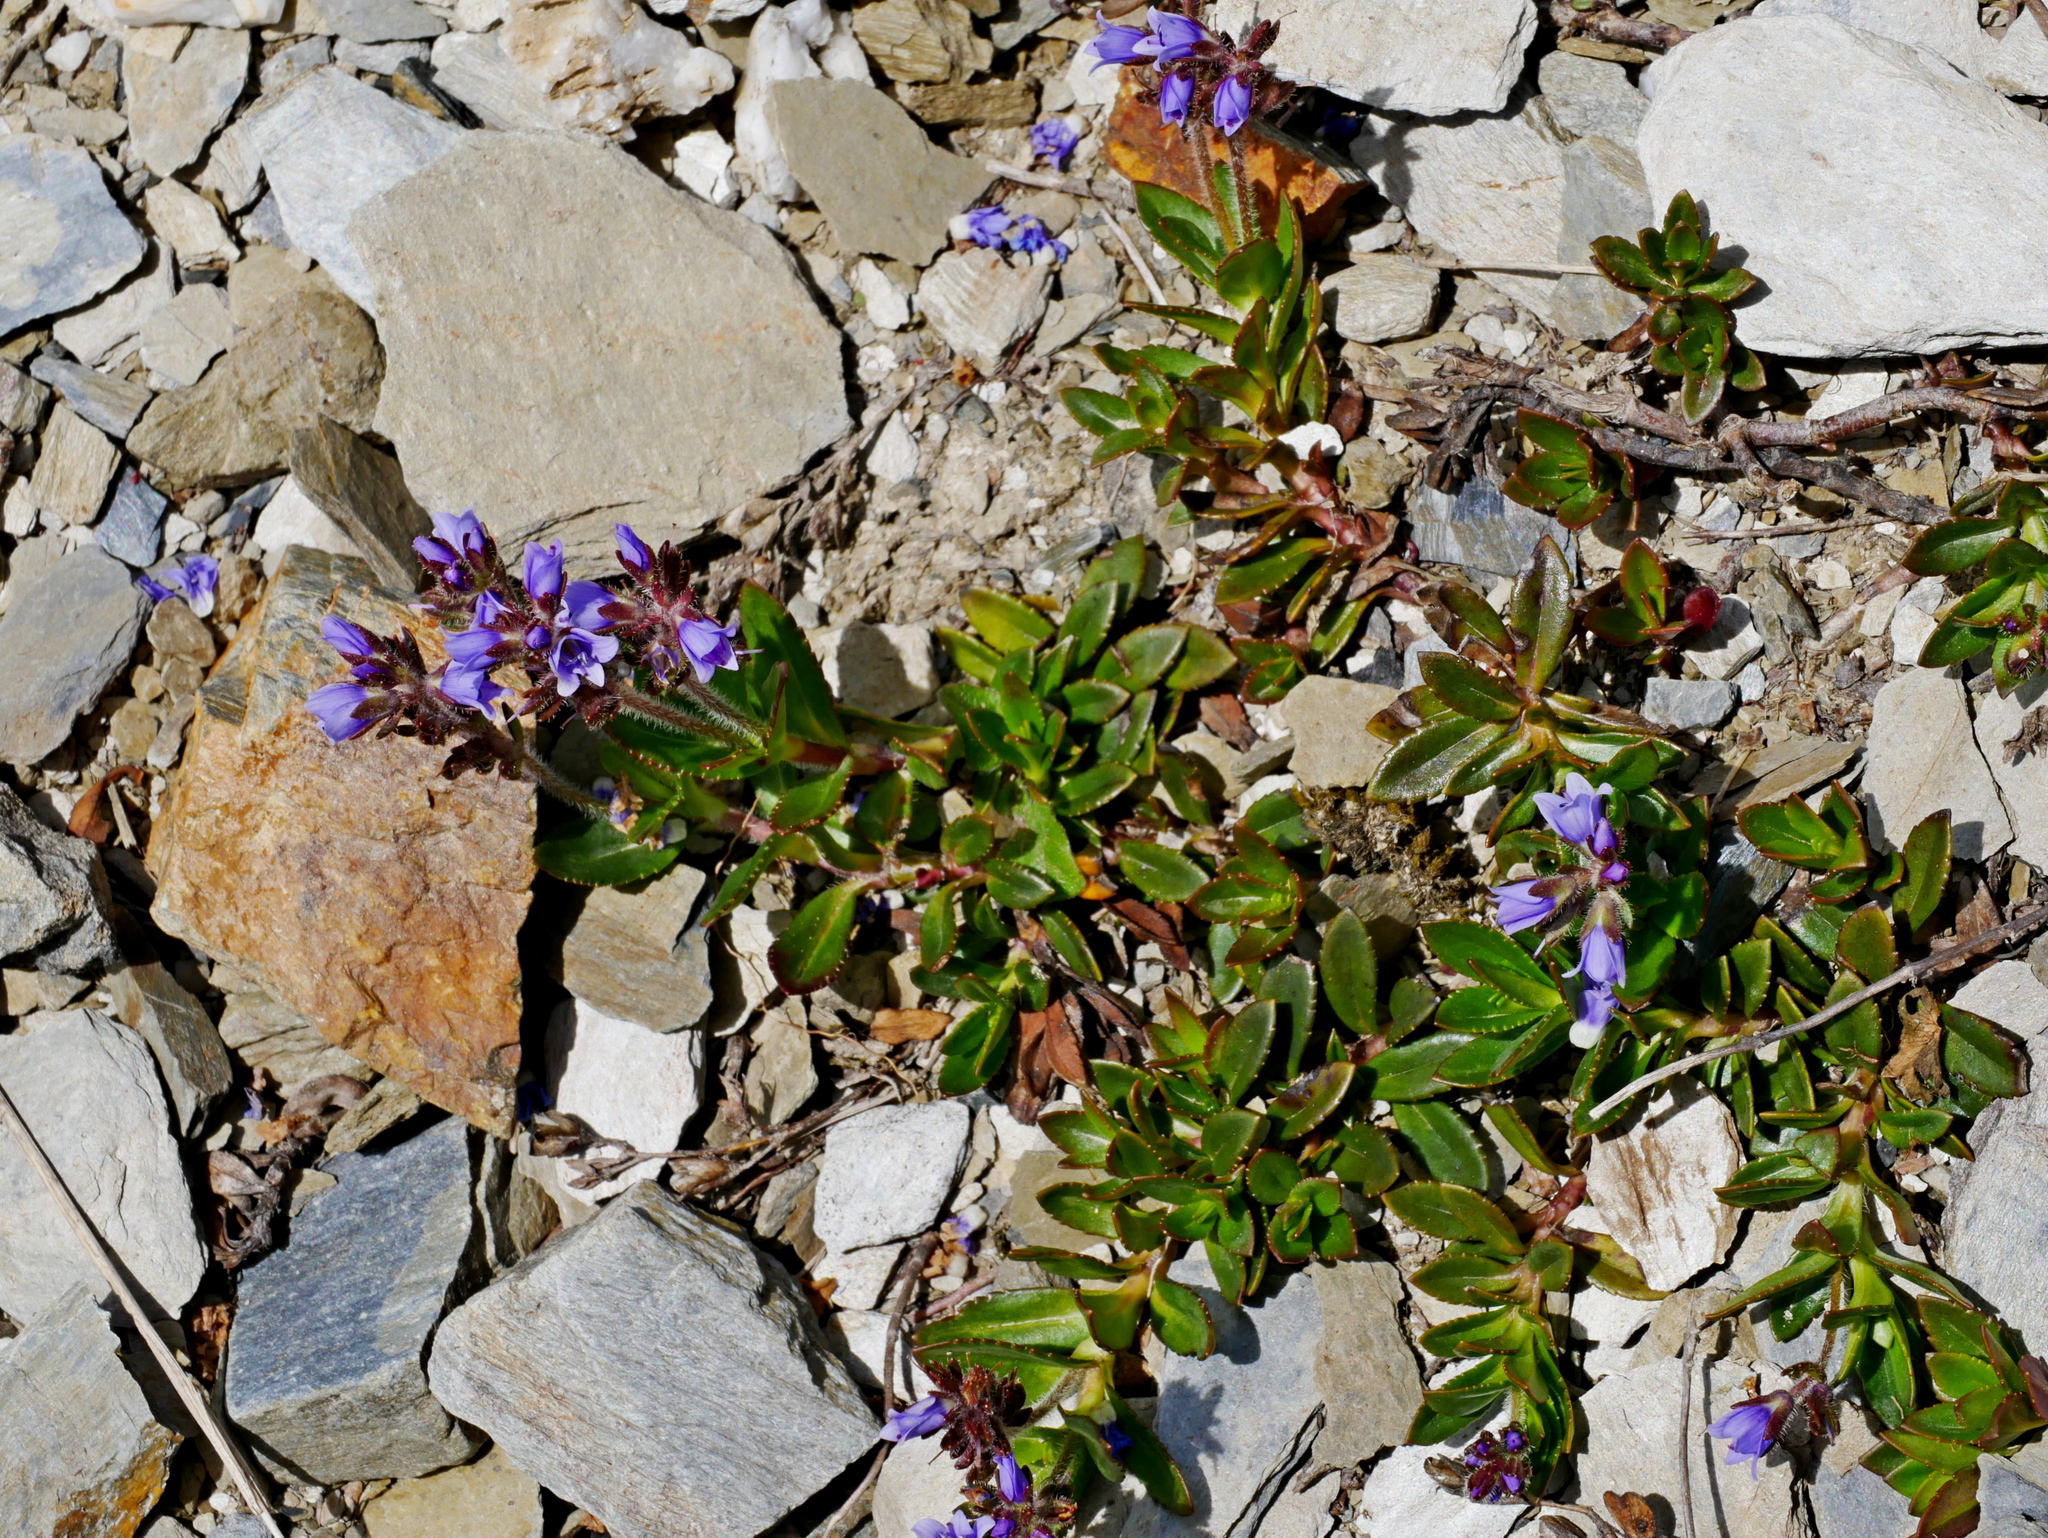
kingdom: Plantae
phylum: Tracheophyta
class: Magnoliopsida
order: Lamiales
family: Plantaginaceae
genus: Veronica
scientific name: Veronica morrisonicola
